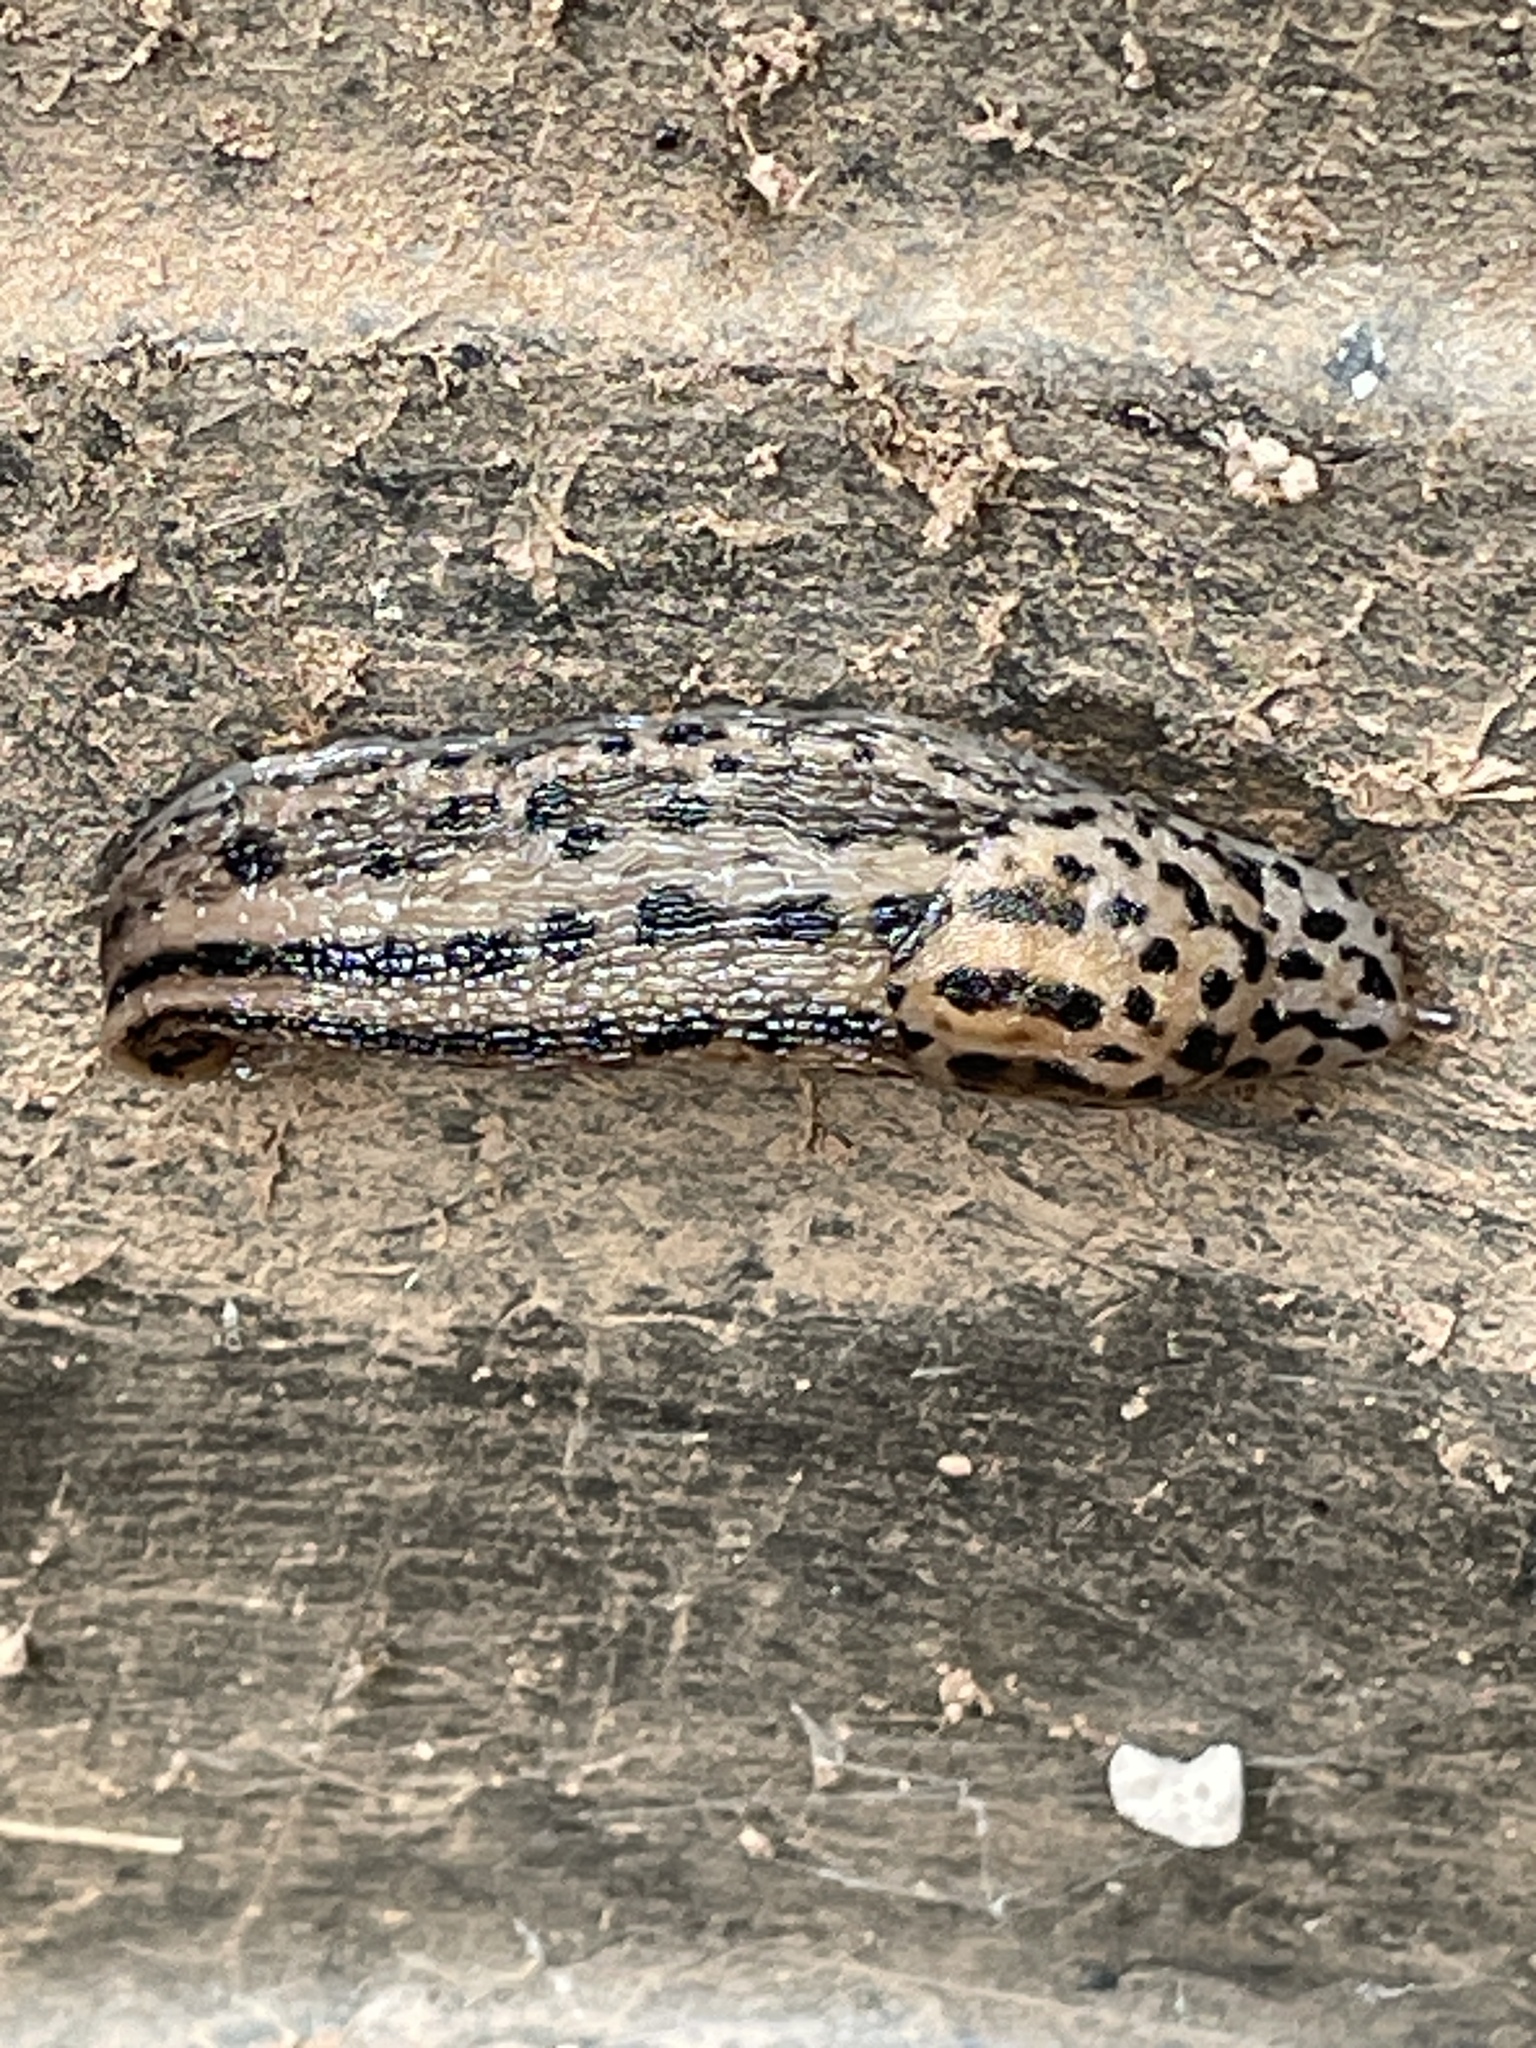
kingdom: Animalia
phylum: Mollusca
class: Gastropoda
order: Stylommatophora
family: Limacidae
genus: Limax
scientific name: Limax maximus
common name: Great grey slug
